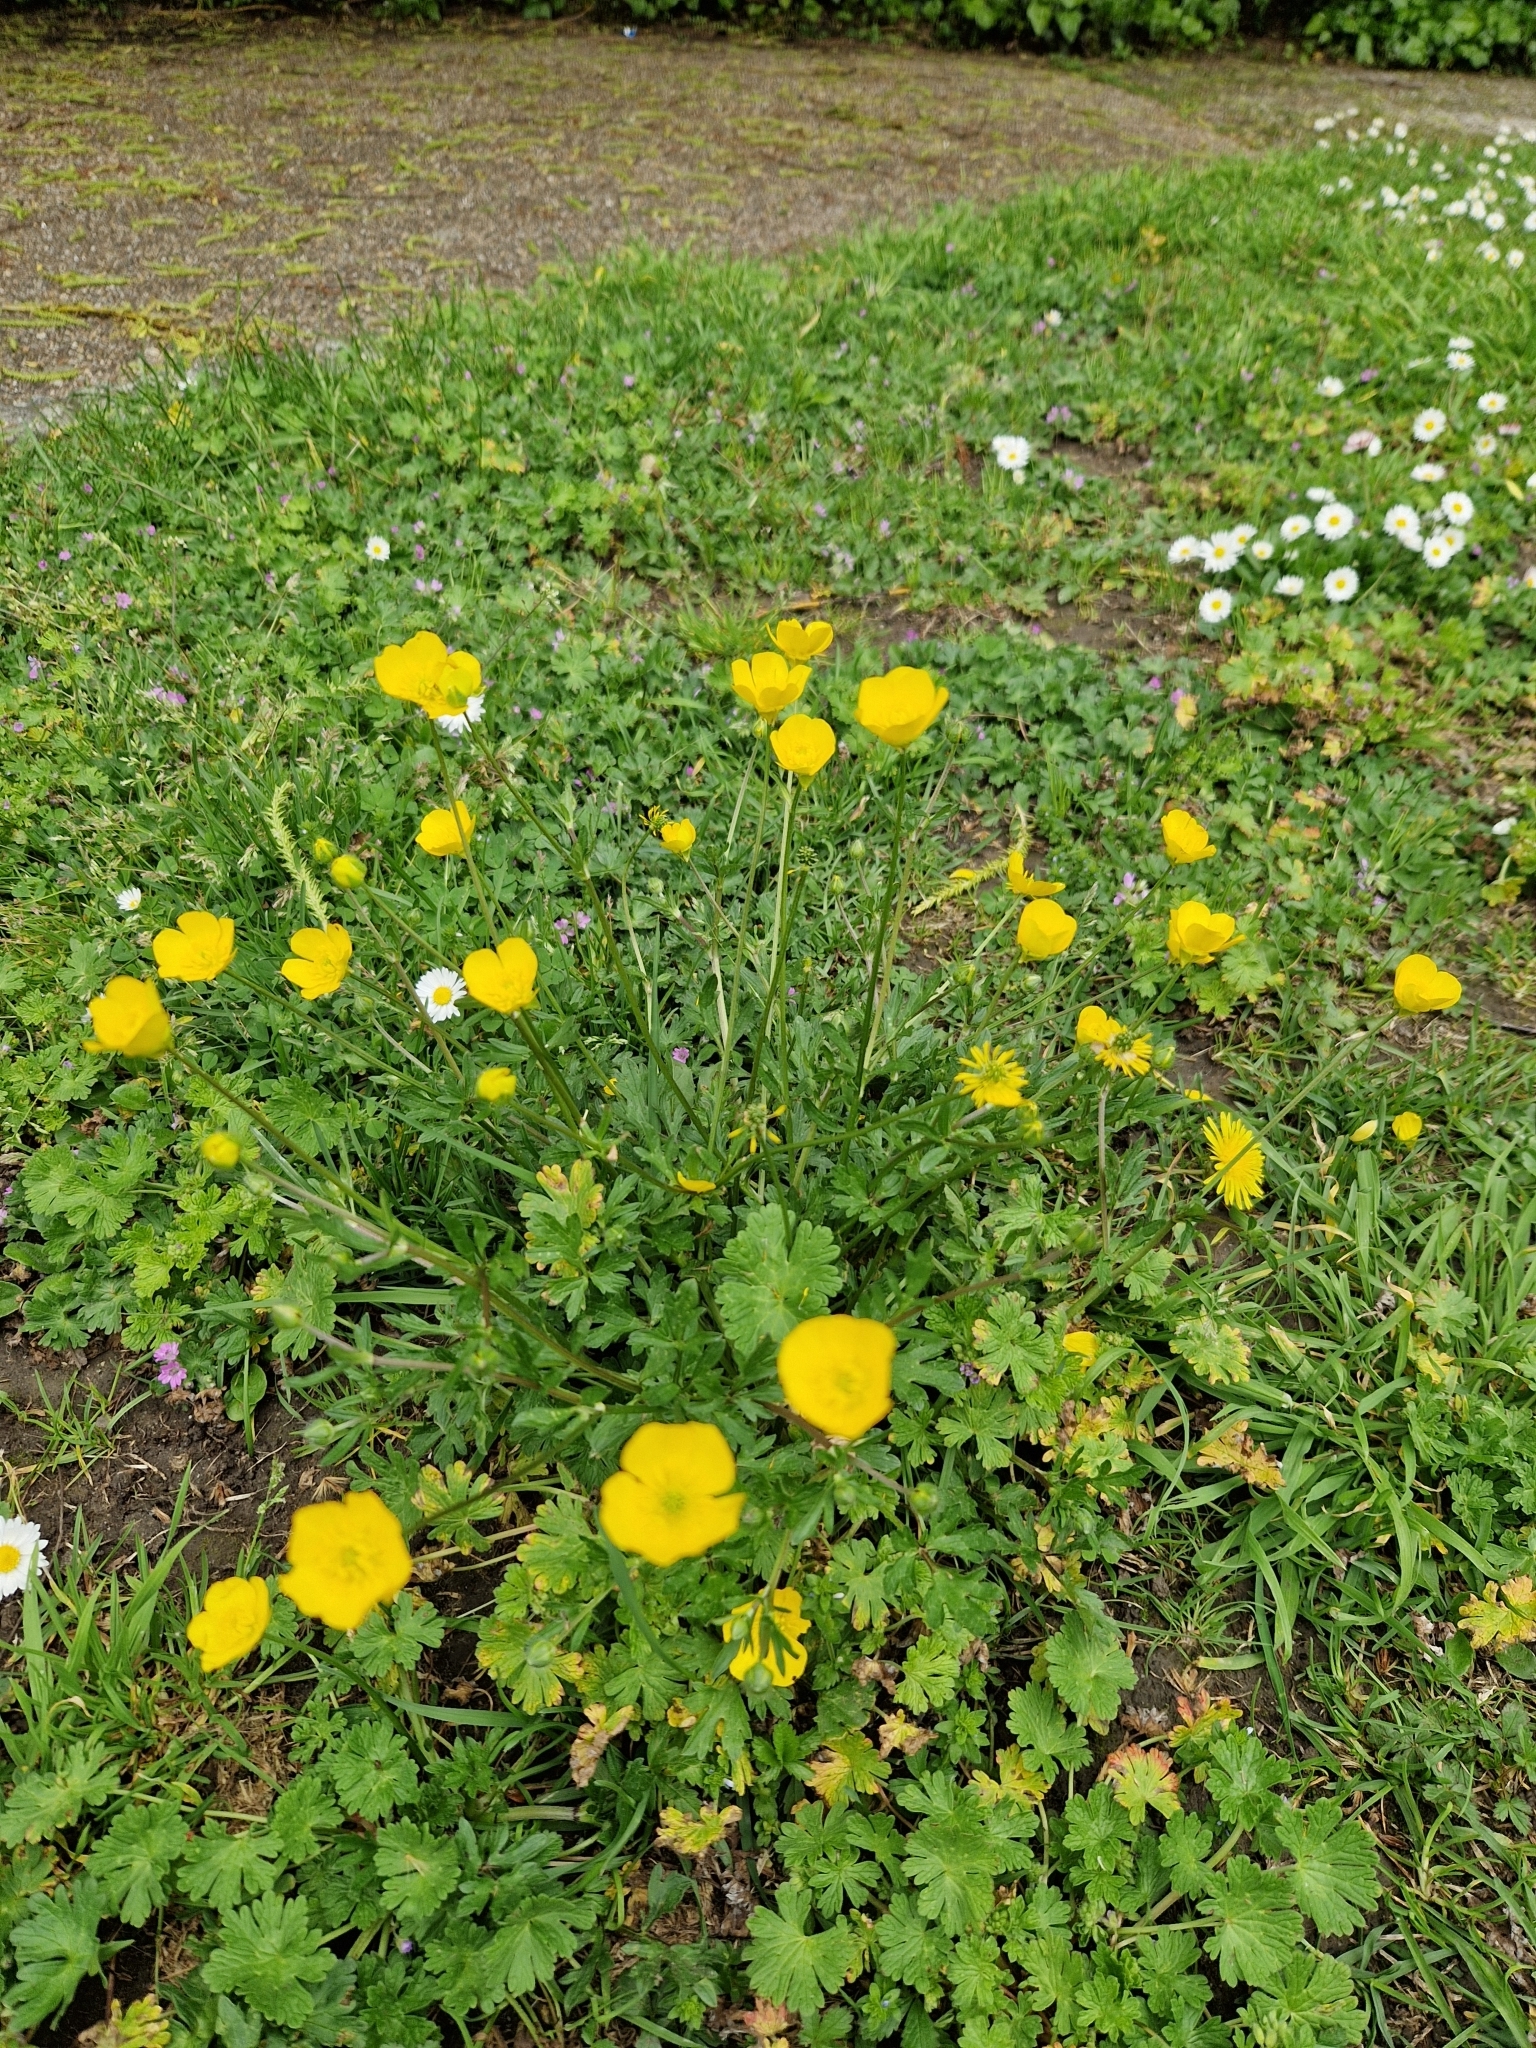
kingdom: Plantae
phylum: Tracheophyta
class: Magnoliopsida
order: Ranunculales
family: Ranunculaceae
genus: Ranunculus
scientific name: Ranunculus bulbosus
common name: Bulbous buttercup
